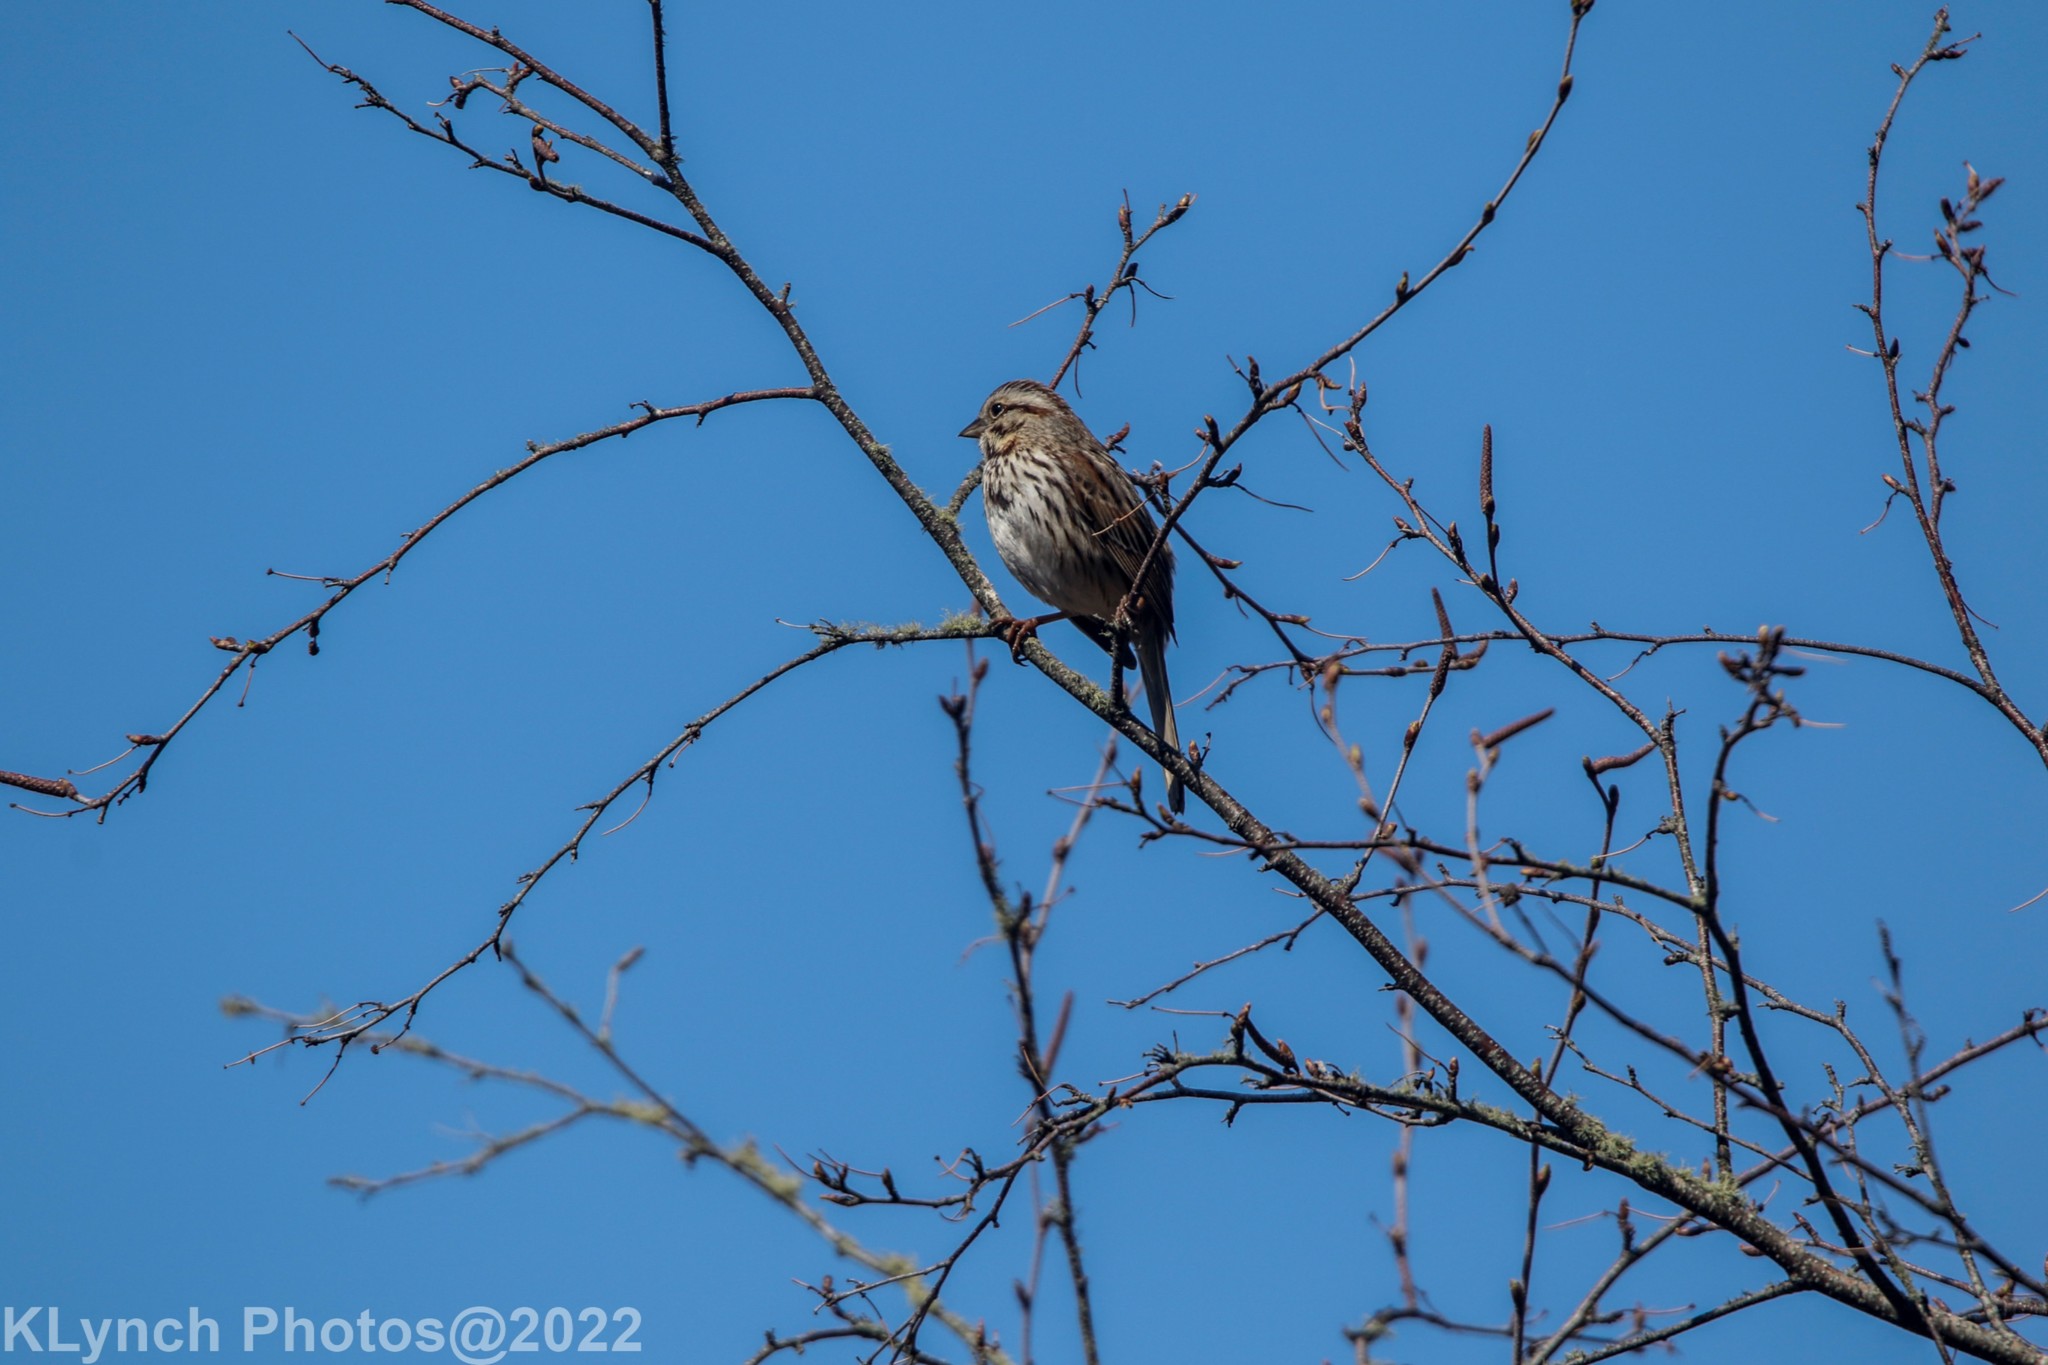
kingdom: Animalia
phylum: Chordata
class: Aves
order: Passeriformes
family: Passerellidae
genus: Melospiza
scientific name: Melospiza melodia
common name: Song sparrow
